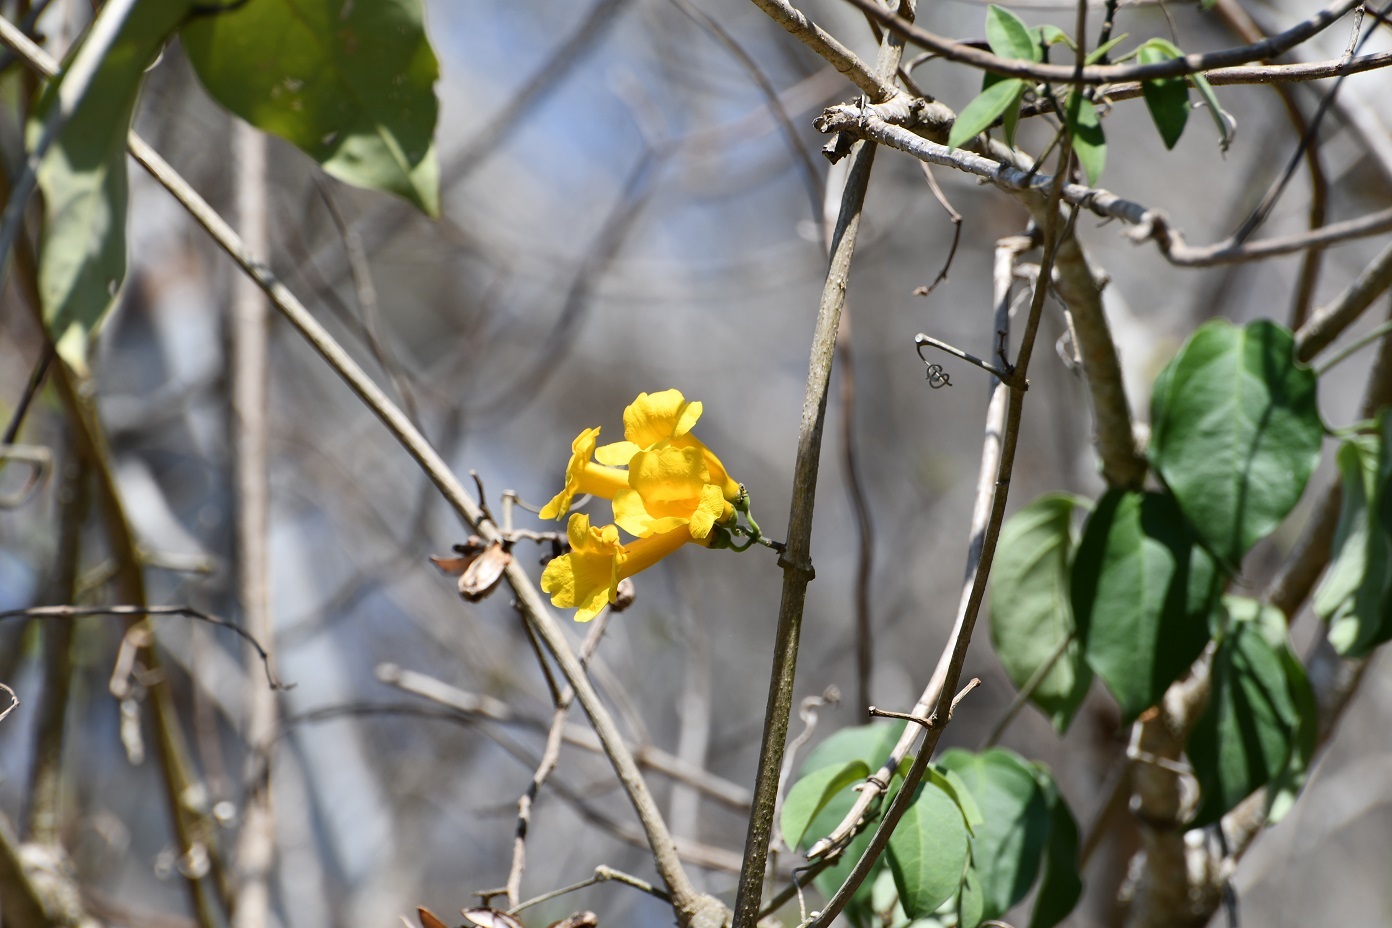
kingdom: Plantae
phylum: Tracheophyta
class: Magnoliopsida
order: Lamiales
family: Bignoniaceae
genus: Anemopaegma
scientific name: Anemopaegma chrysanthum
